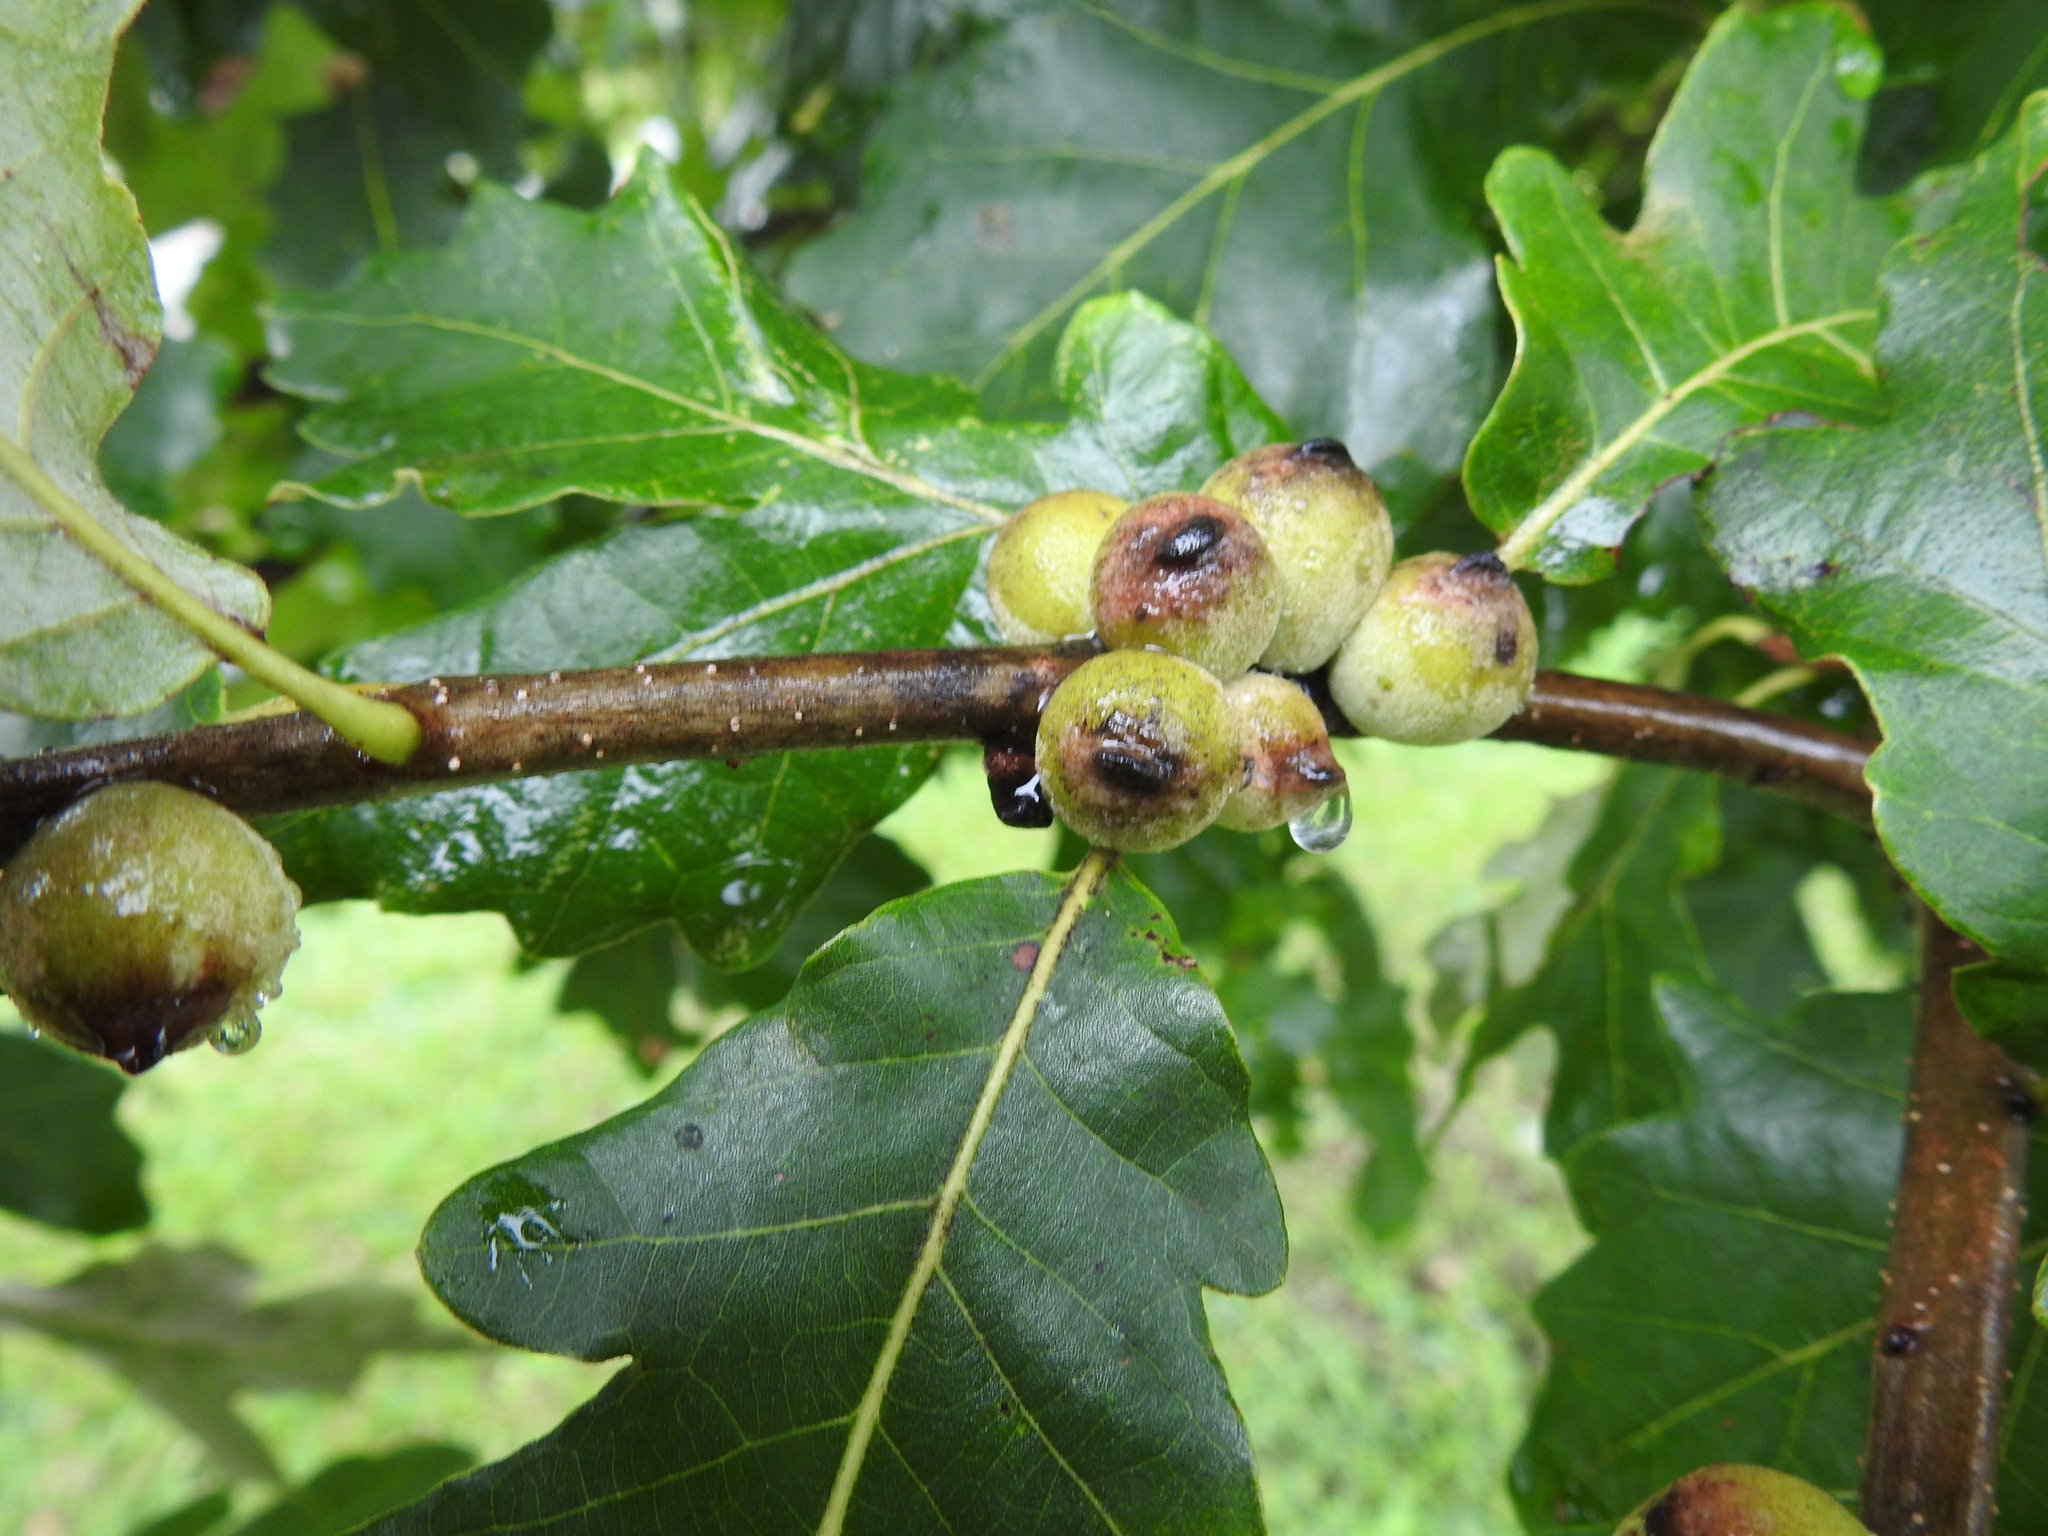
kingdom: Animalia
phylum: Arthropoda
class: Insecta
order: Hymenoptera
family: Cynipidae
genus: Disholcaspis
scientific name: Disholcaspis
